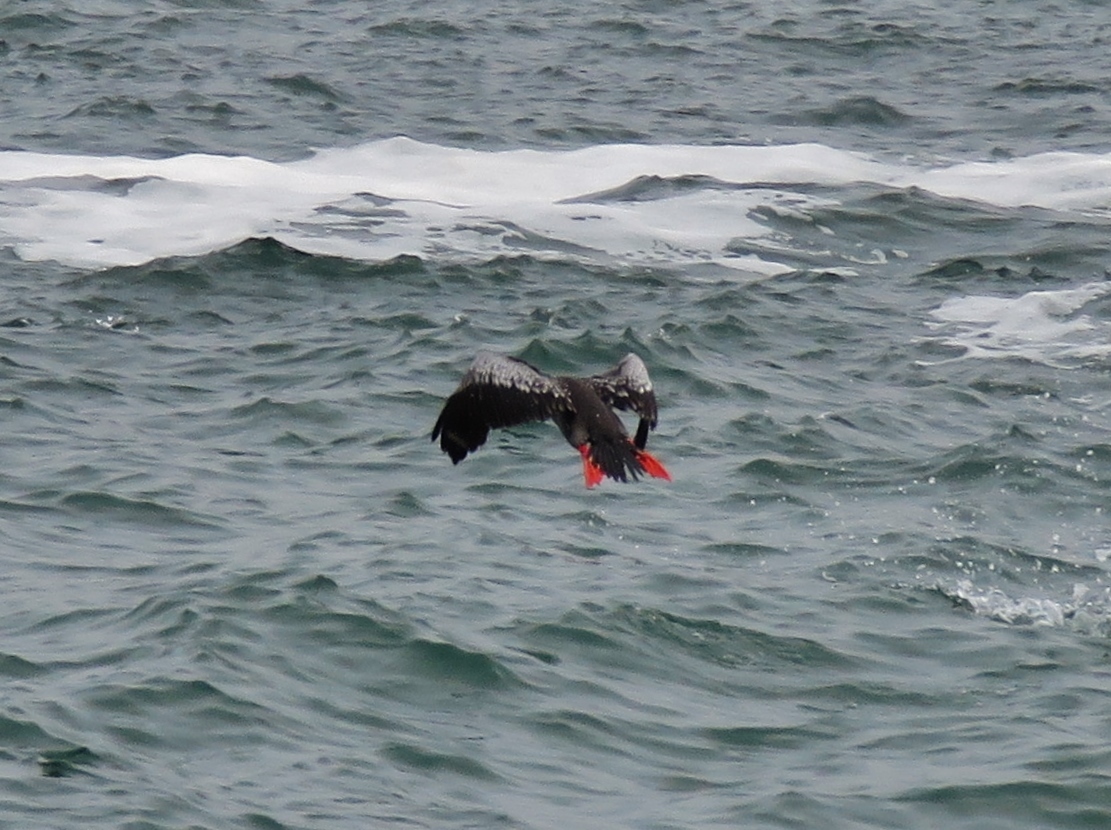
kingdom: Animalia
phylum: Chordata
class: Aves
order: Suliformes
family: Phalacrocoracidae
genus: Phalacrocorax
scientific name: Phalacrocorax gaimardi
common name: Red-legged cormorant
